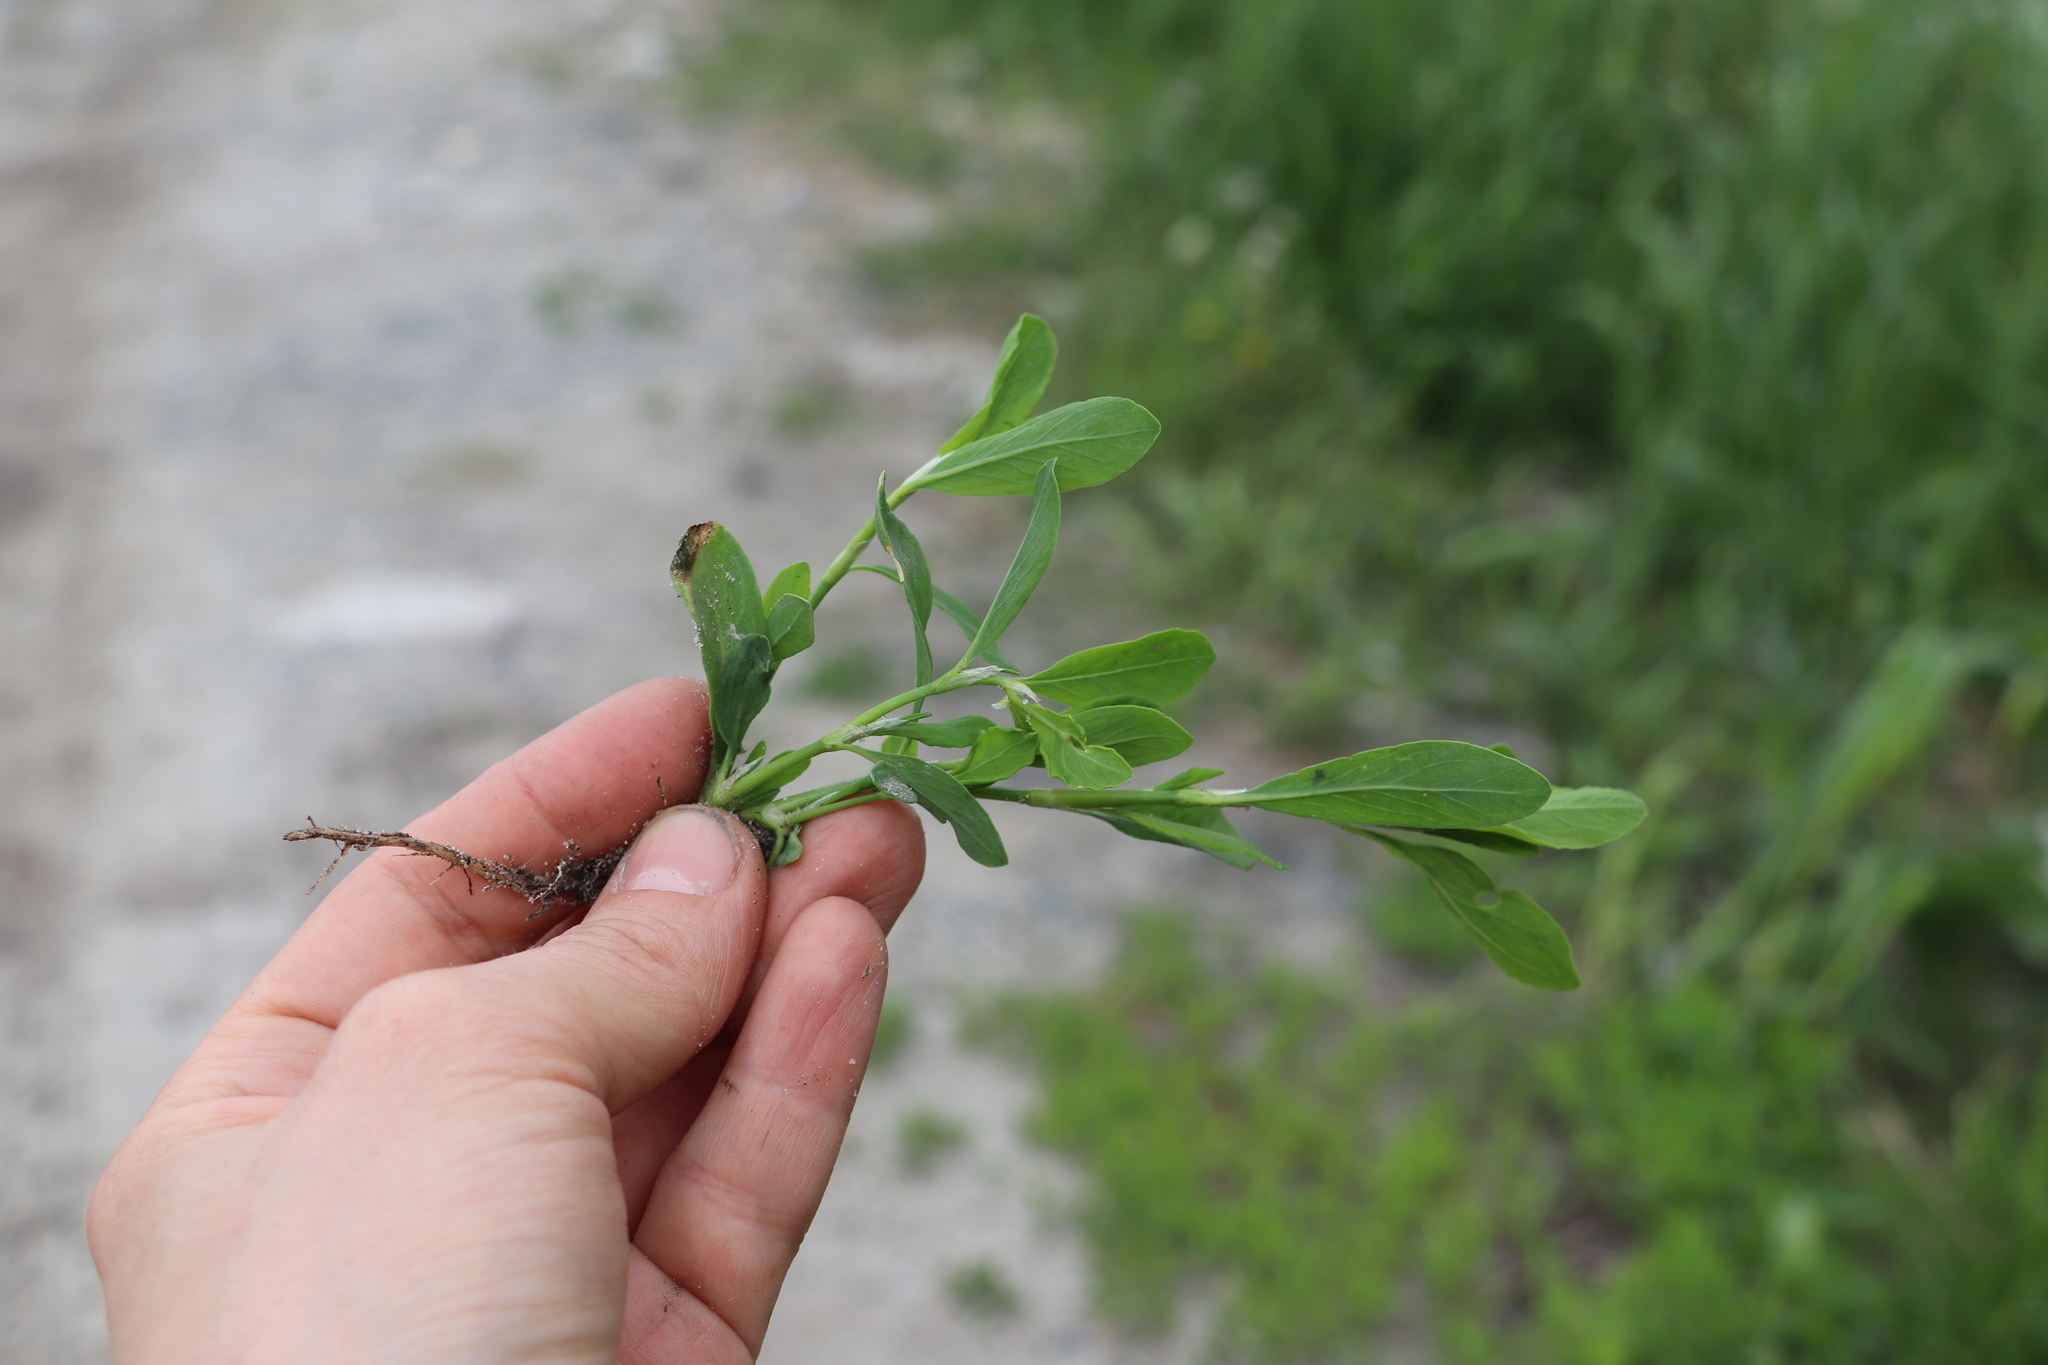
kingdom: Plantae
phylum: Tracheophyta
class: Magnoliopsida
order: Caryophyllales
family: Polygonaceae
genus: Polygonum
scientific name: Polygonum
